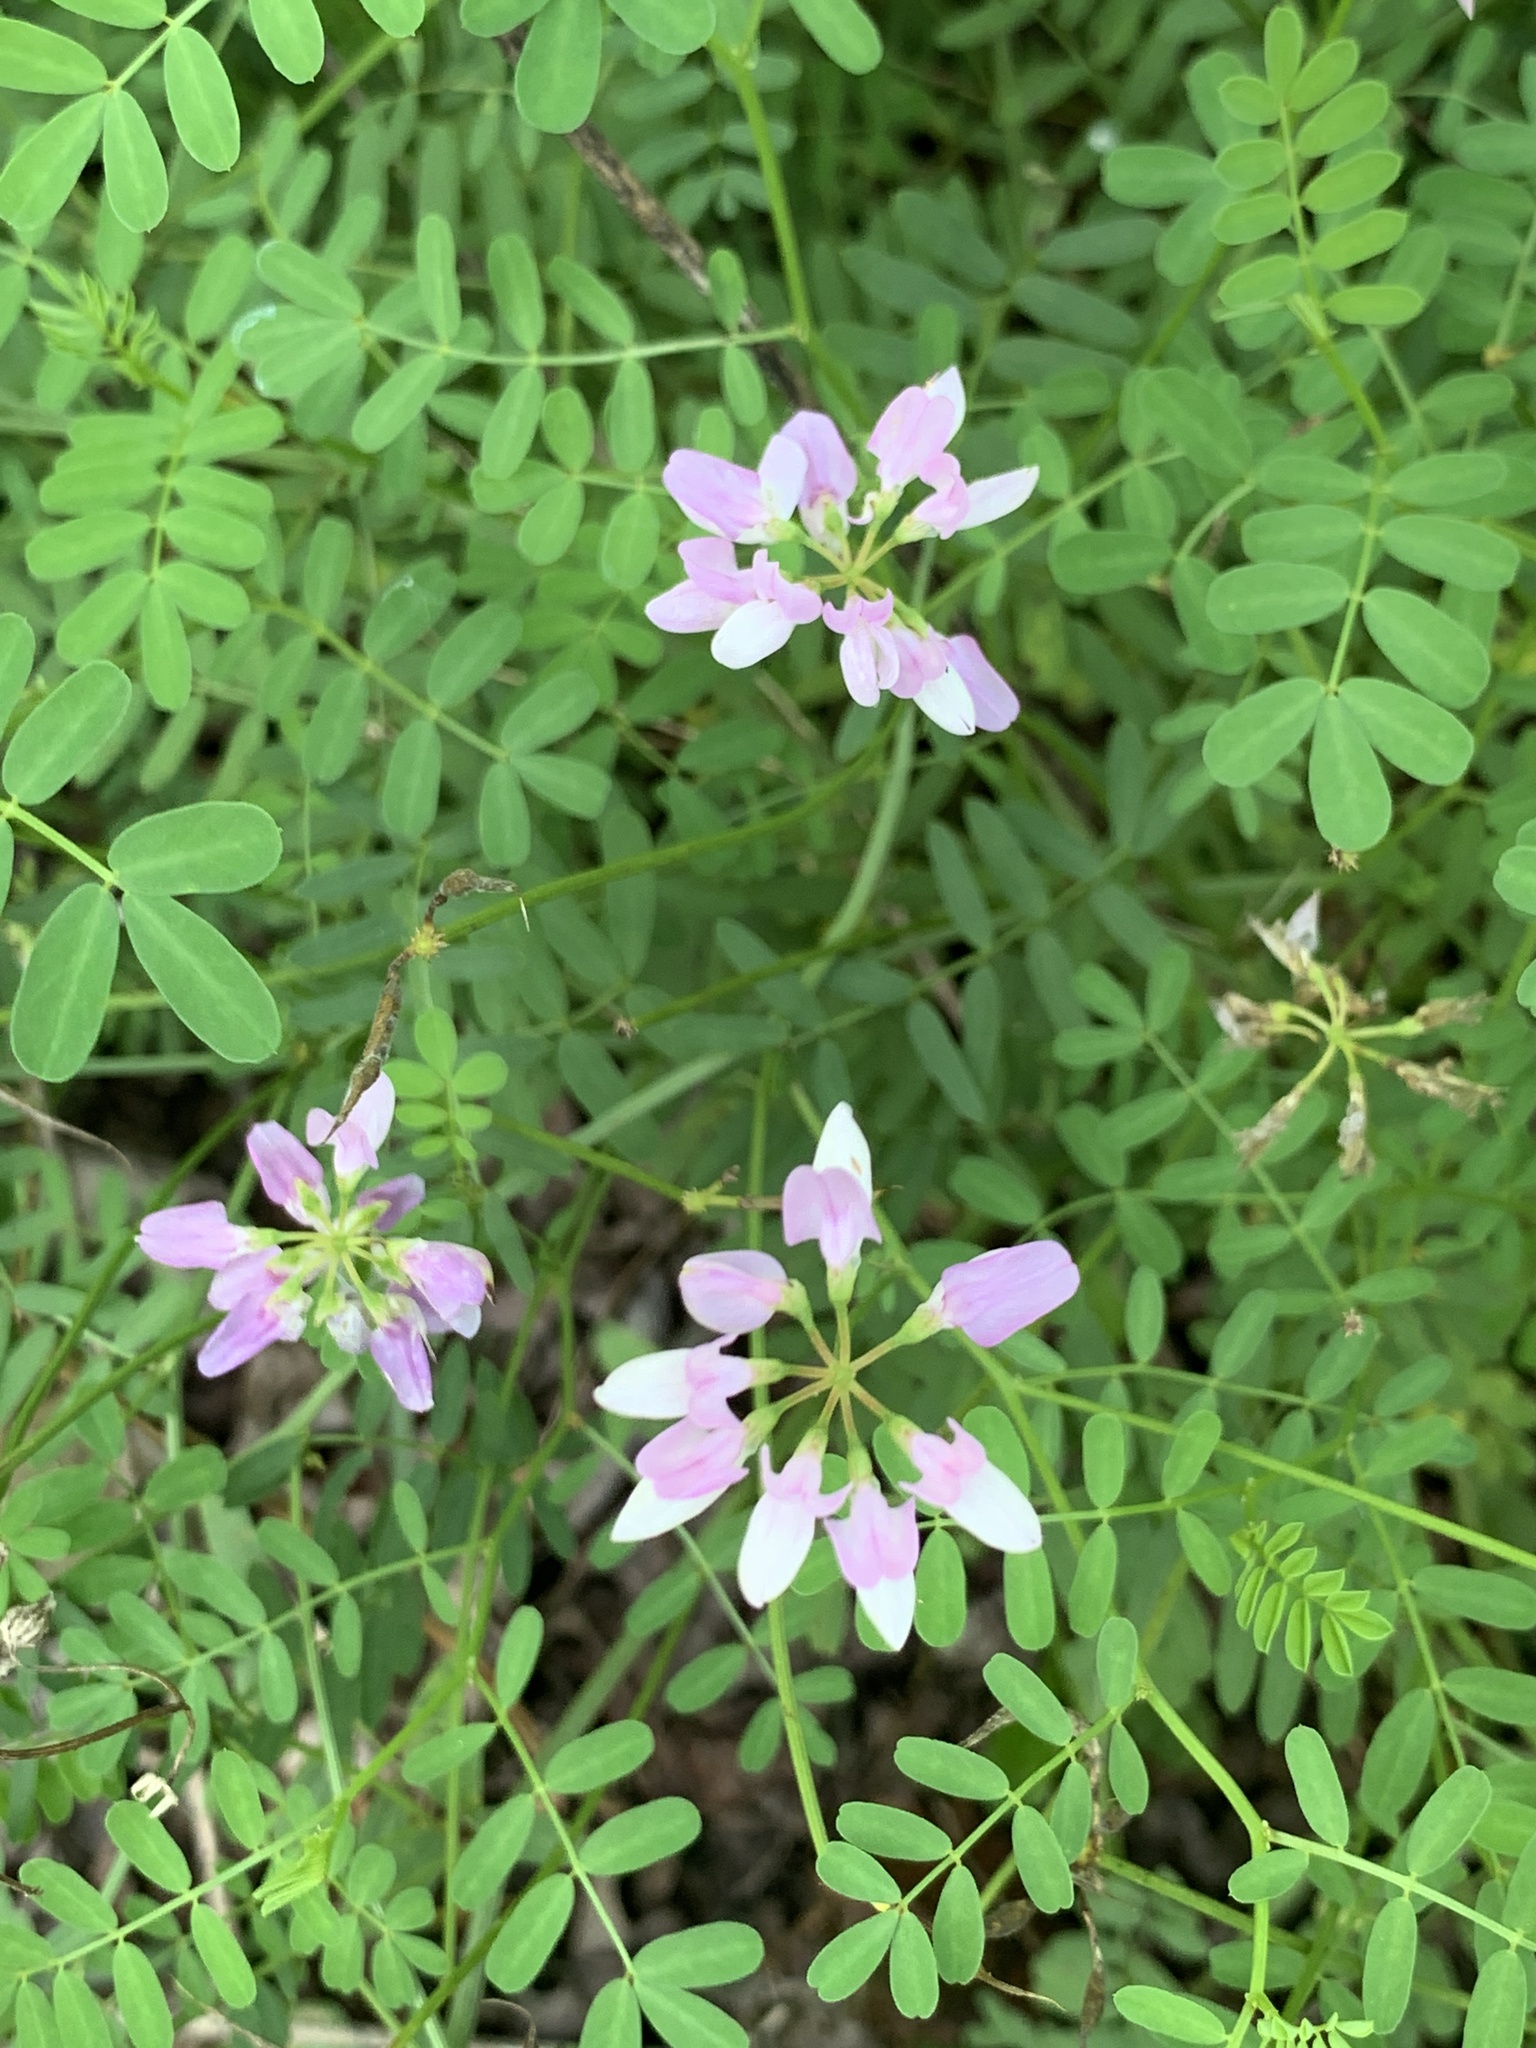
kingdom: Plantae
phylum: Tracheophyta
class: Magnoliopsida
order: Fabales
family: Fabaceae
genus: Coronilla
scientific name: Coronilla varia
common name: Crownvetch
